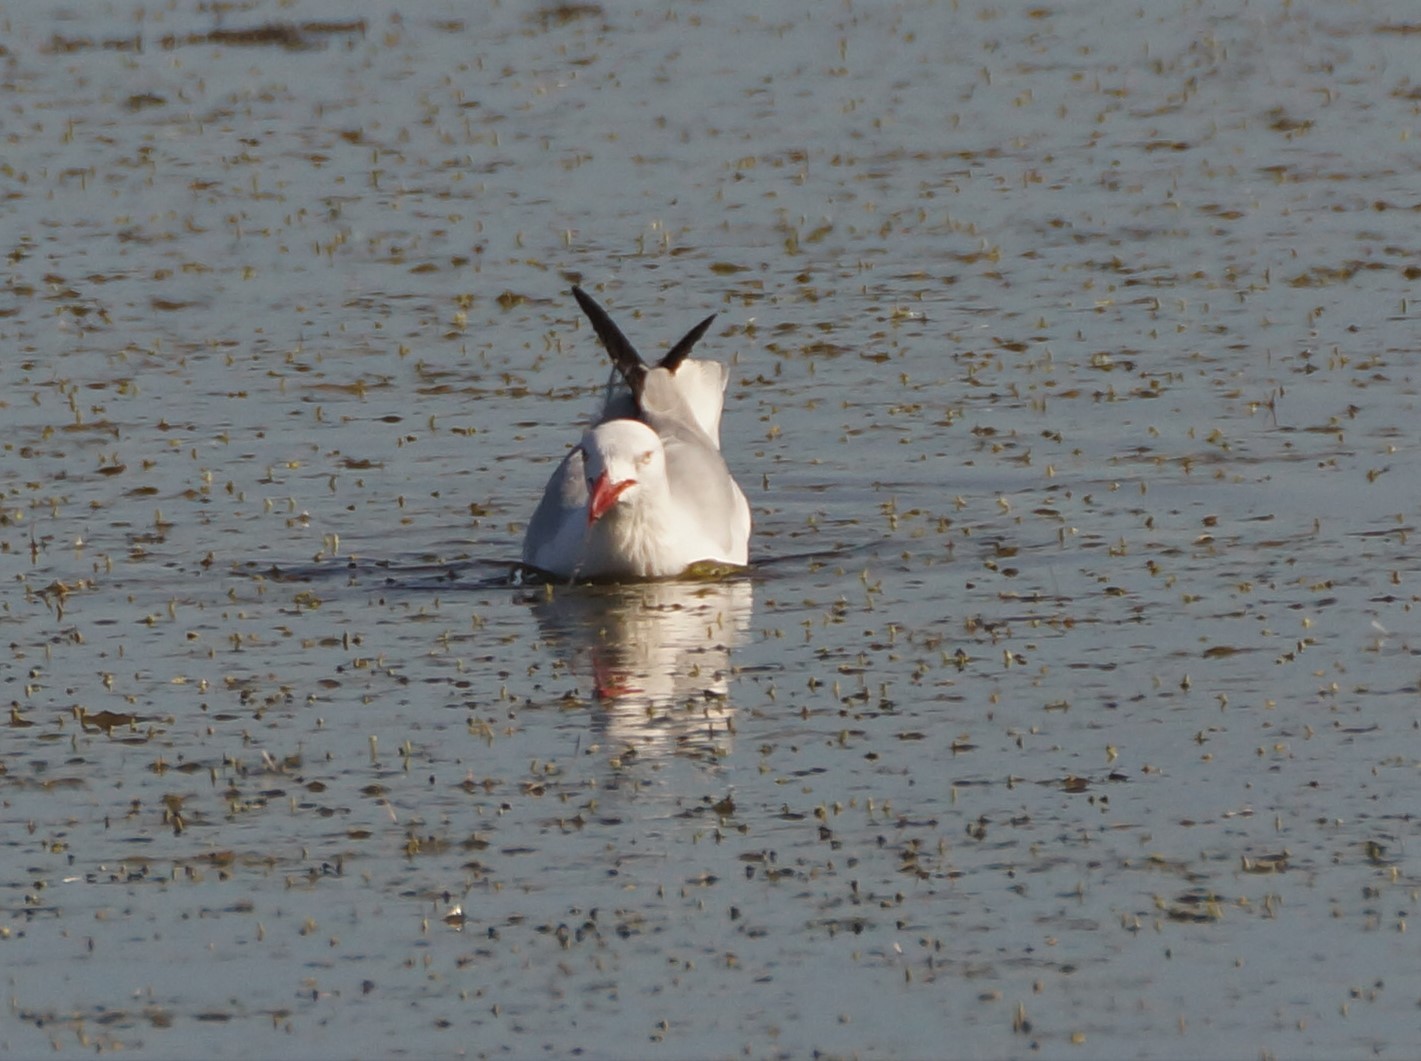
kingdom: Animalia
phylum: Chordata
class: Aves
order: Charadriiformes
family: Laridae
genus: Chroicocephalus
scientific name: Chroicocephalus novaehollandiae
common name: Silver gull
